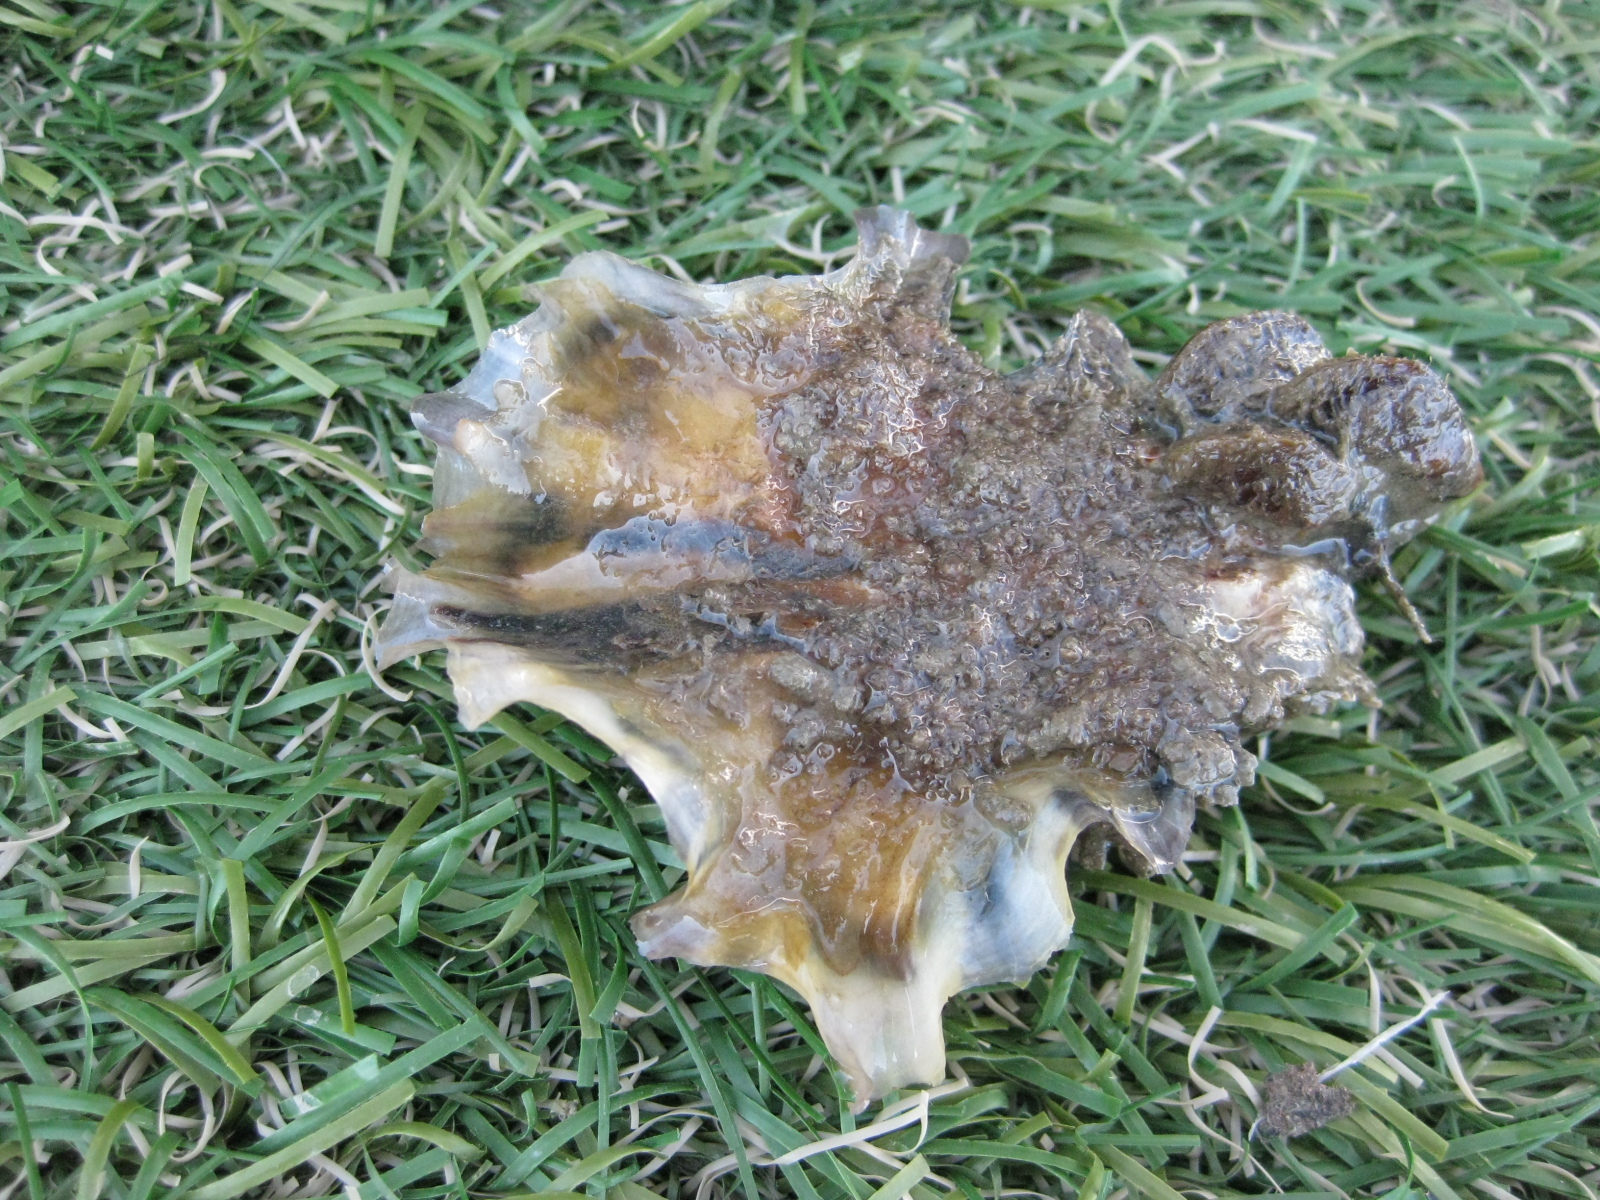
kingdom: Animalia
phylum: Mollusca
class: Bivalvia
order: Ostreida
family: Ostreidae
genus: Magallana
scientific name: Magallana gigas
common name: Pacific oyster
